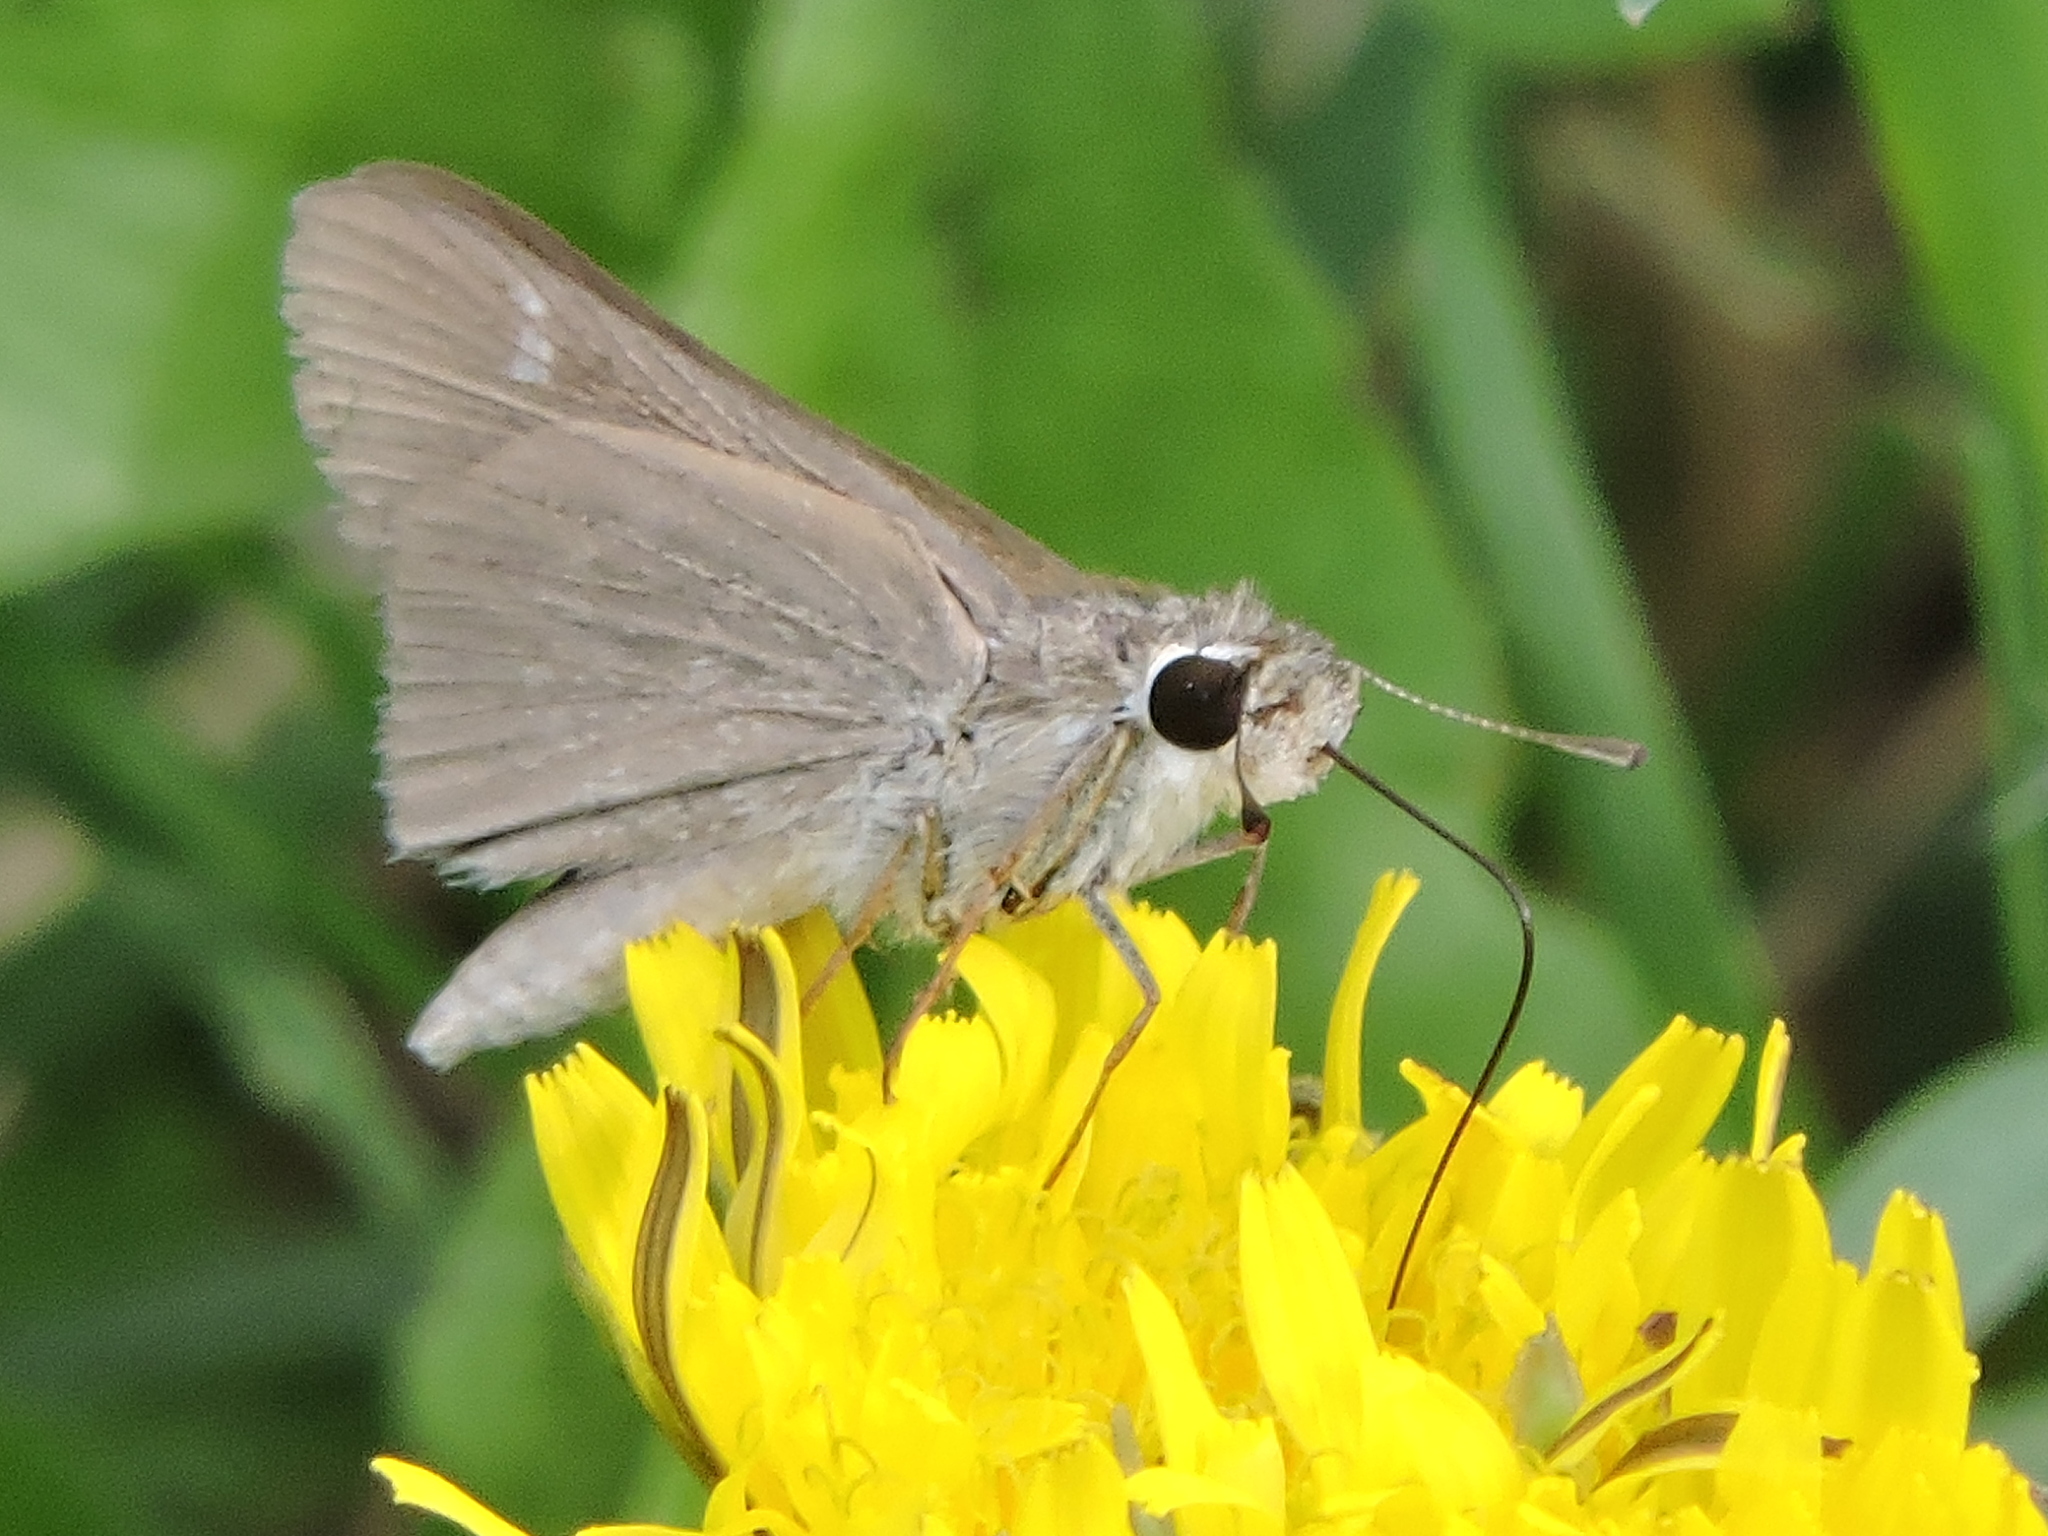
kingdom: Animalia
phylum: Arthropoda
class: Insecta
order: Lepidoptera
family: Hesperiidae
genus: Lerodea
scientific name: Lerodea eufala
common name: Eufala skipper
